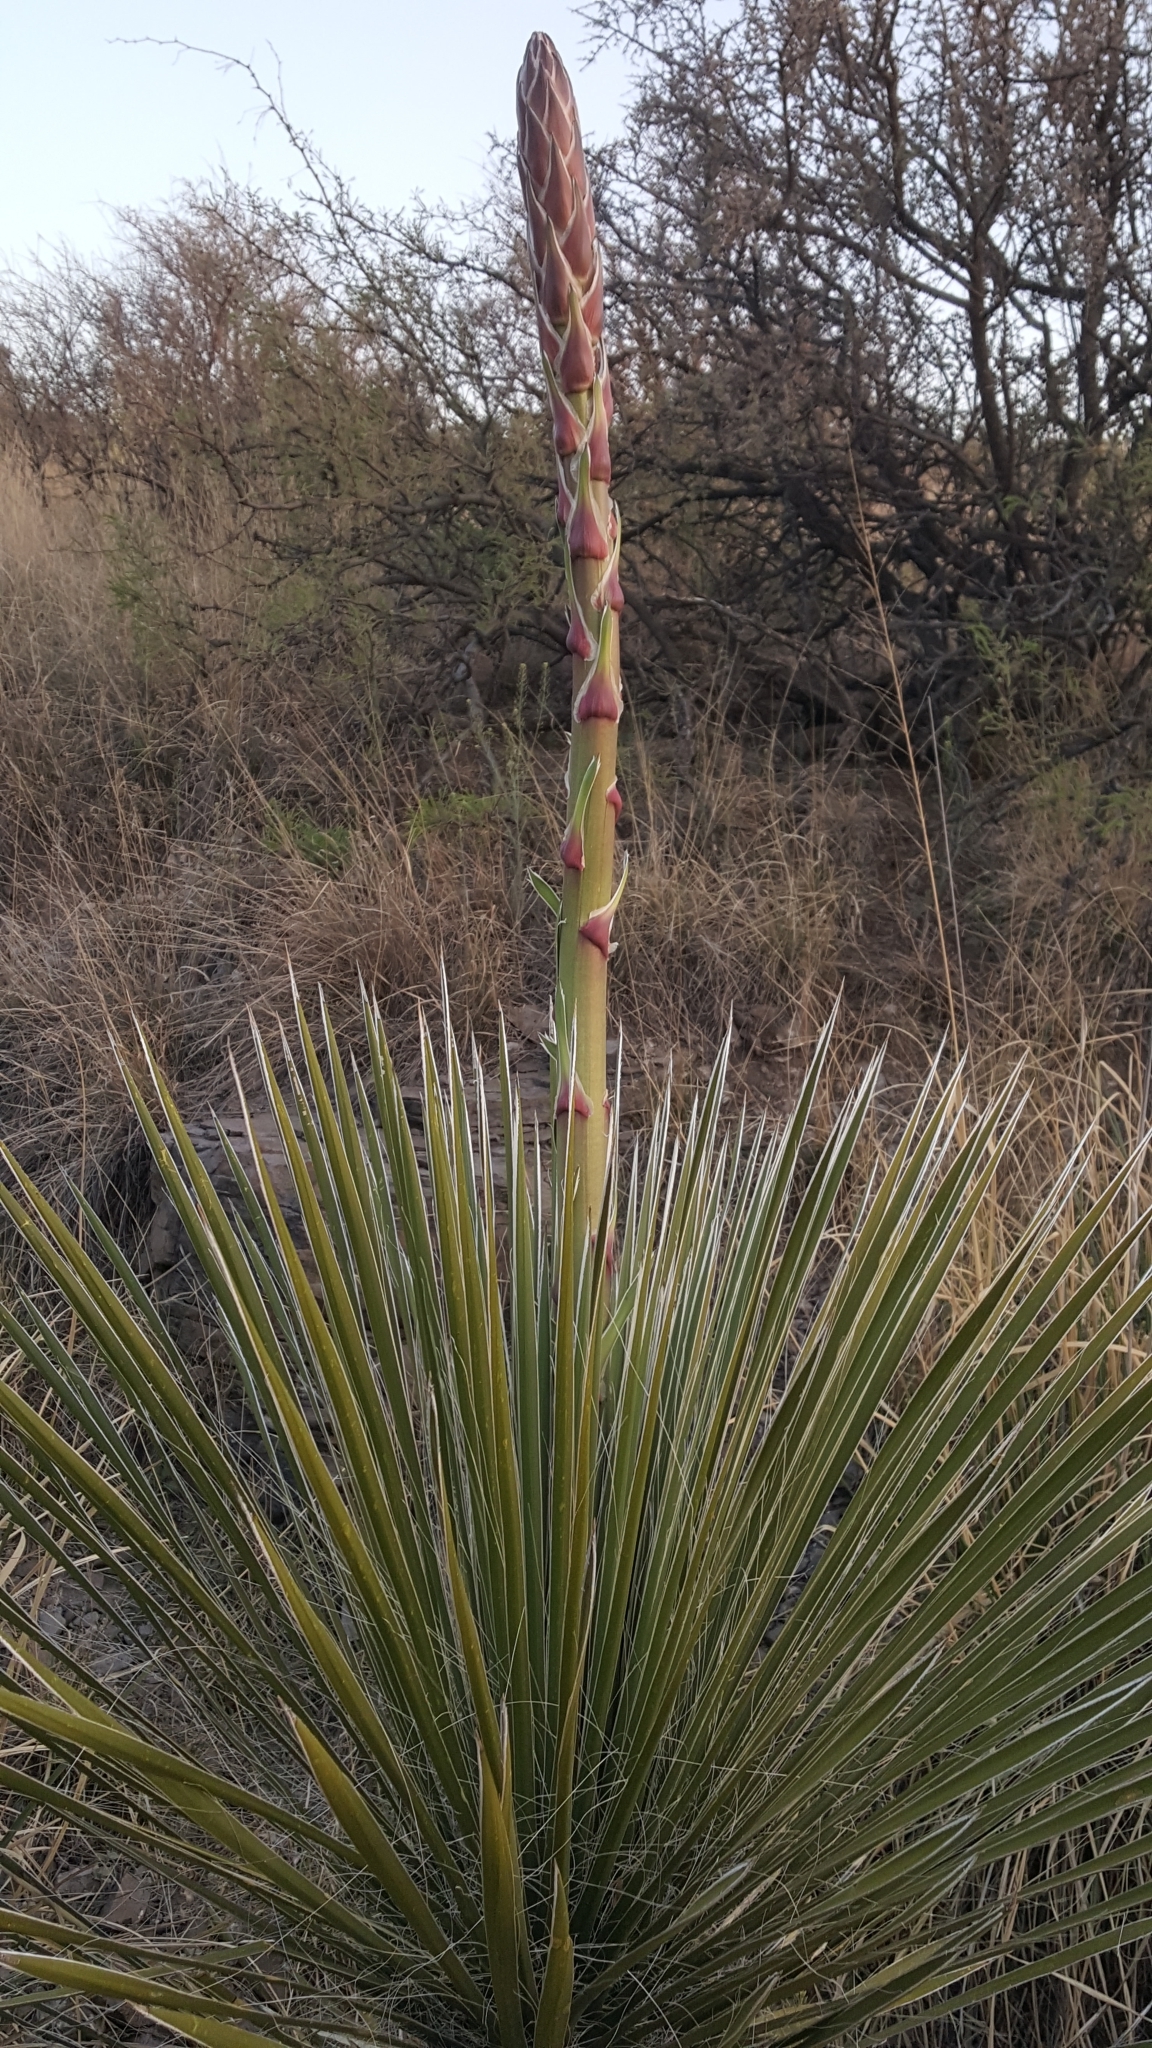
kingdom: Plantae
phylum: Tracheophyta
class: Liliopsida
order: Asparagales
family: Asparagaceae
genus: Yucca
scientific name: Yucca elata
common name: Palmella
